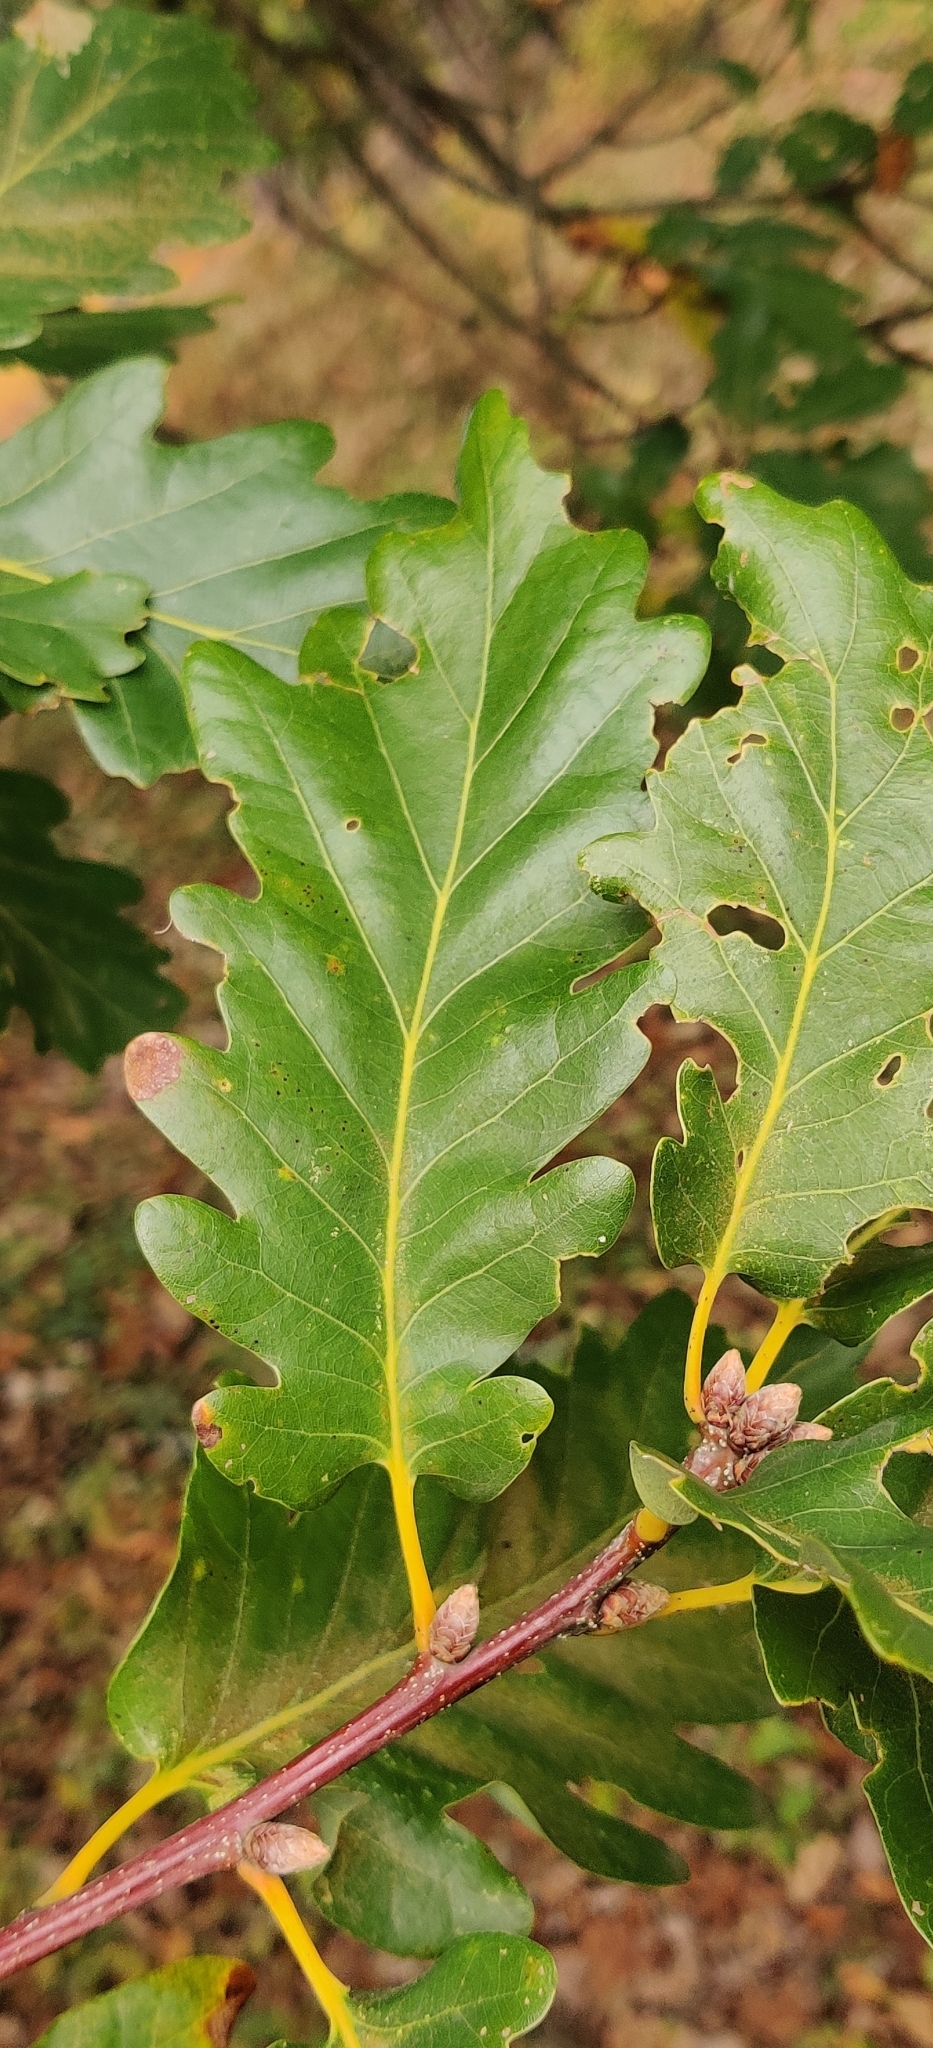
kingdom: Plantae
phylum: Tracheophyta
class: Magnoliopsida
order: Fagales
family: Fagaceae
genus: Quercus
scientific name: Quercus rosacea
